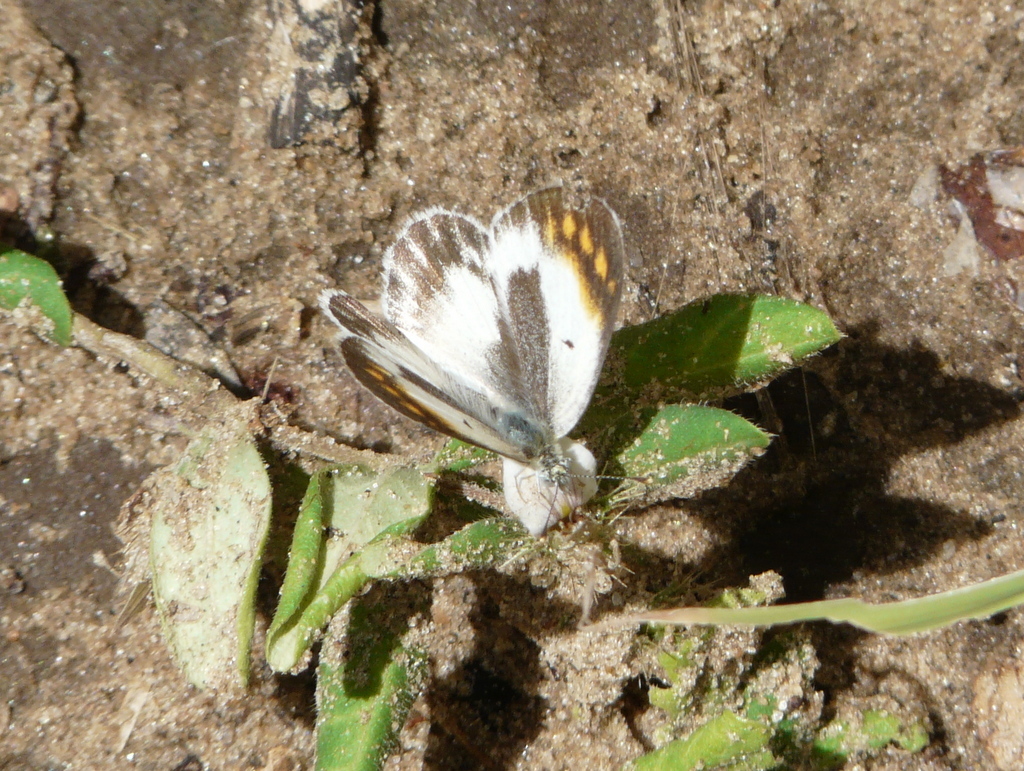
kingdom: Animalia
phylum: Arthropoda
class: Insecta
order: Lepidoptera
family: Pieridae
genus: Colotis
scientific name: Colotis evagore
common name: Desert orange-tip
